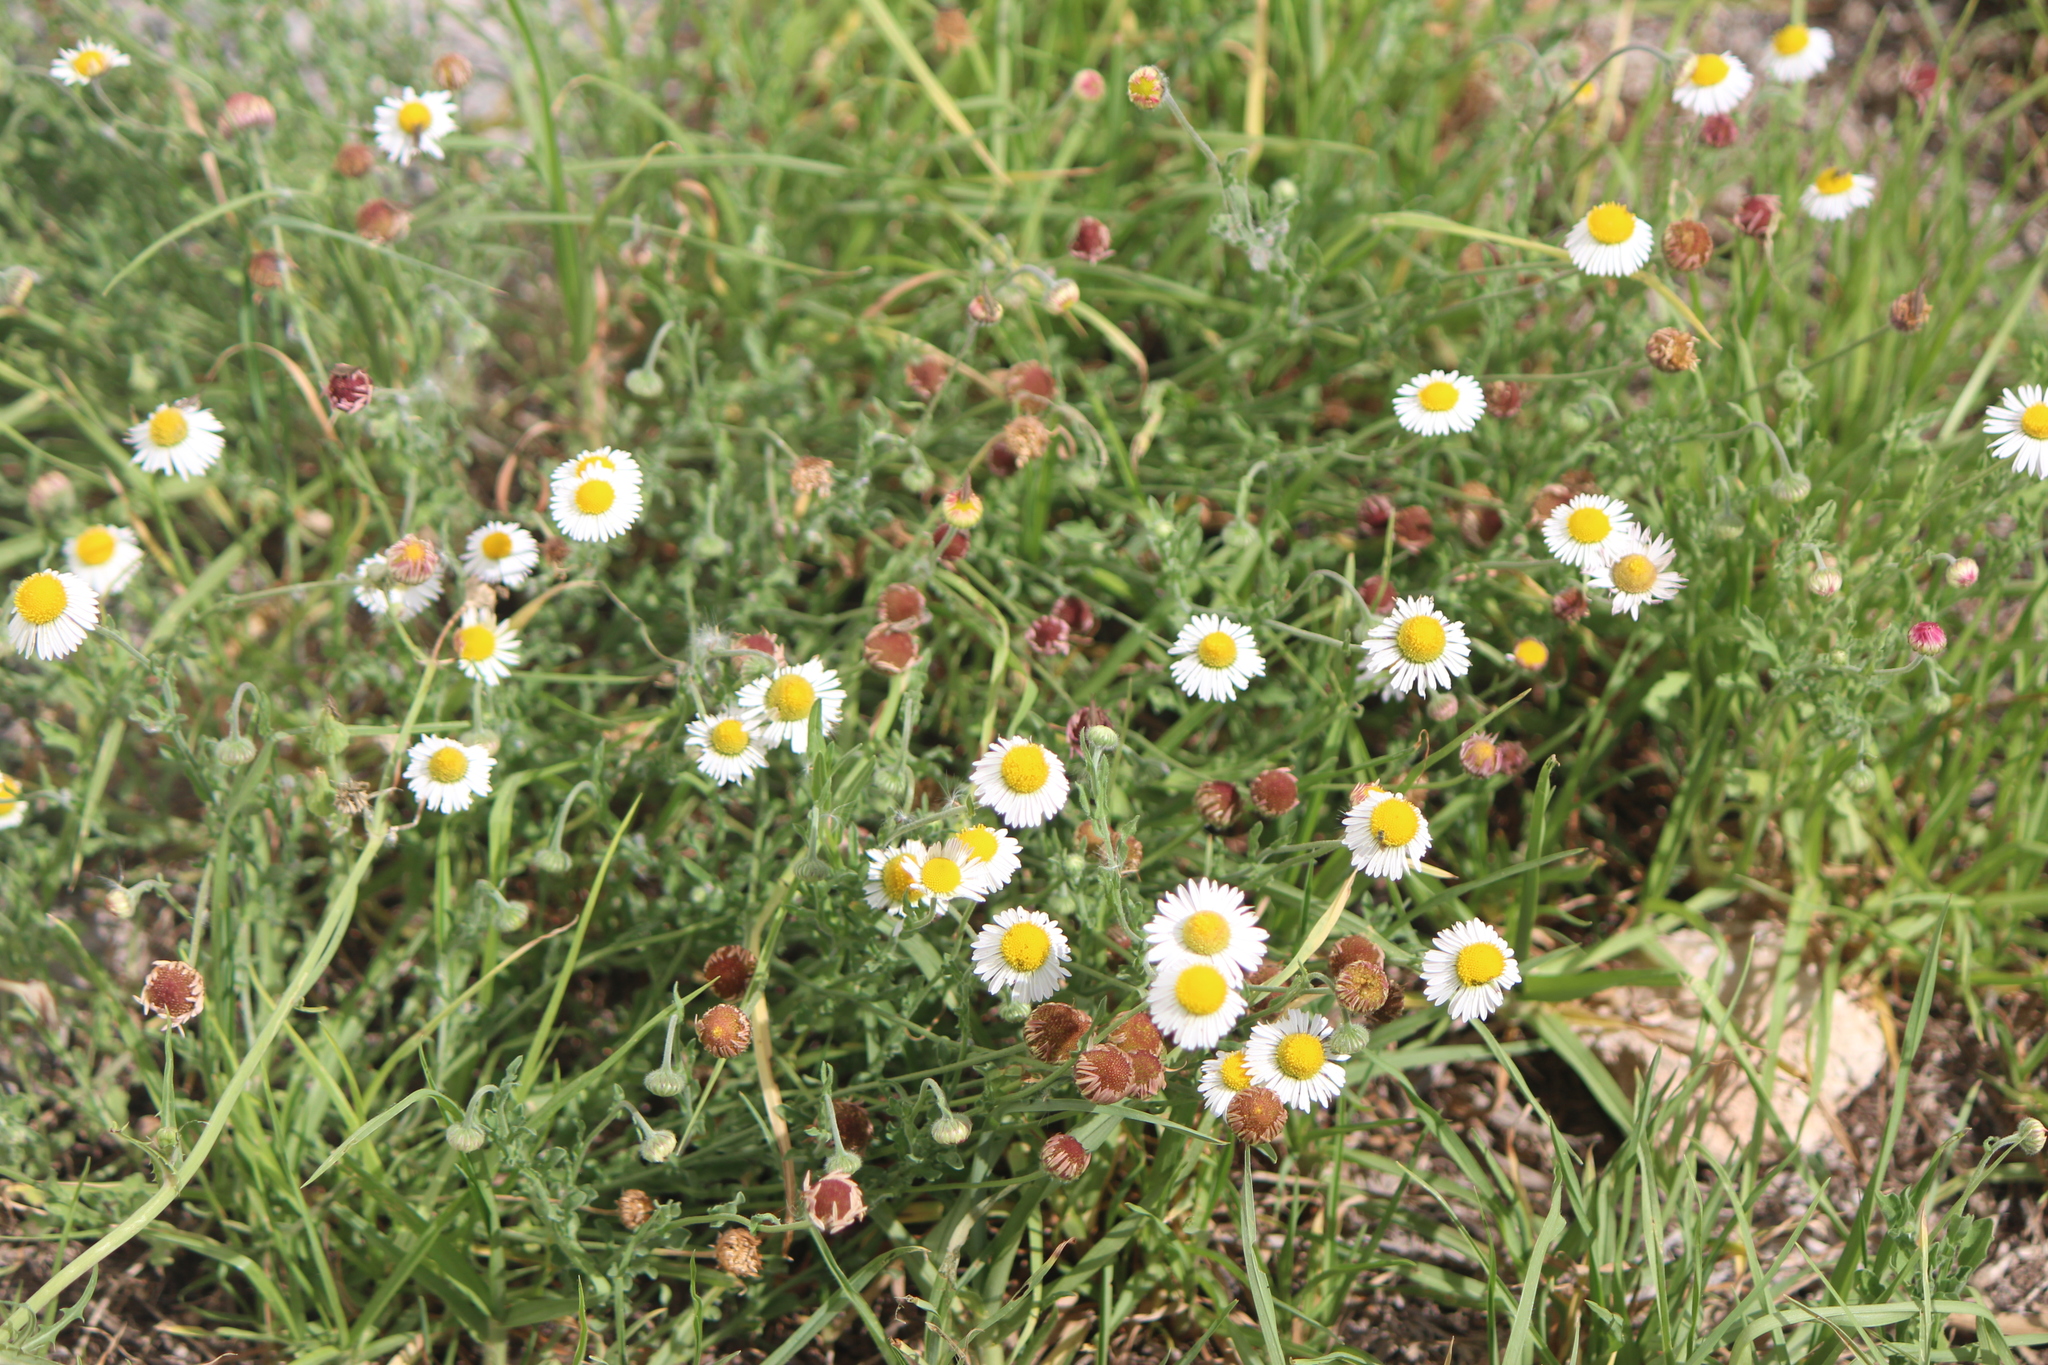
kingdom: Plantae
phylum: Tracheophyta
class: Magnoliopsida
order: Asterales
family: Asteraceae
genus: Aphanostephus
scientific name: Aphanostephus ramosissimus
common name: Plains lazy daisy
